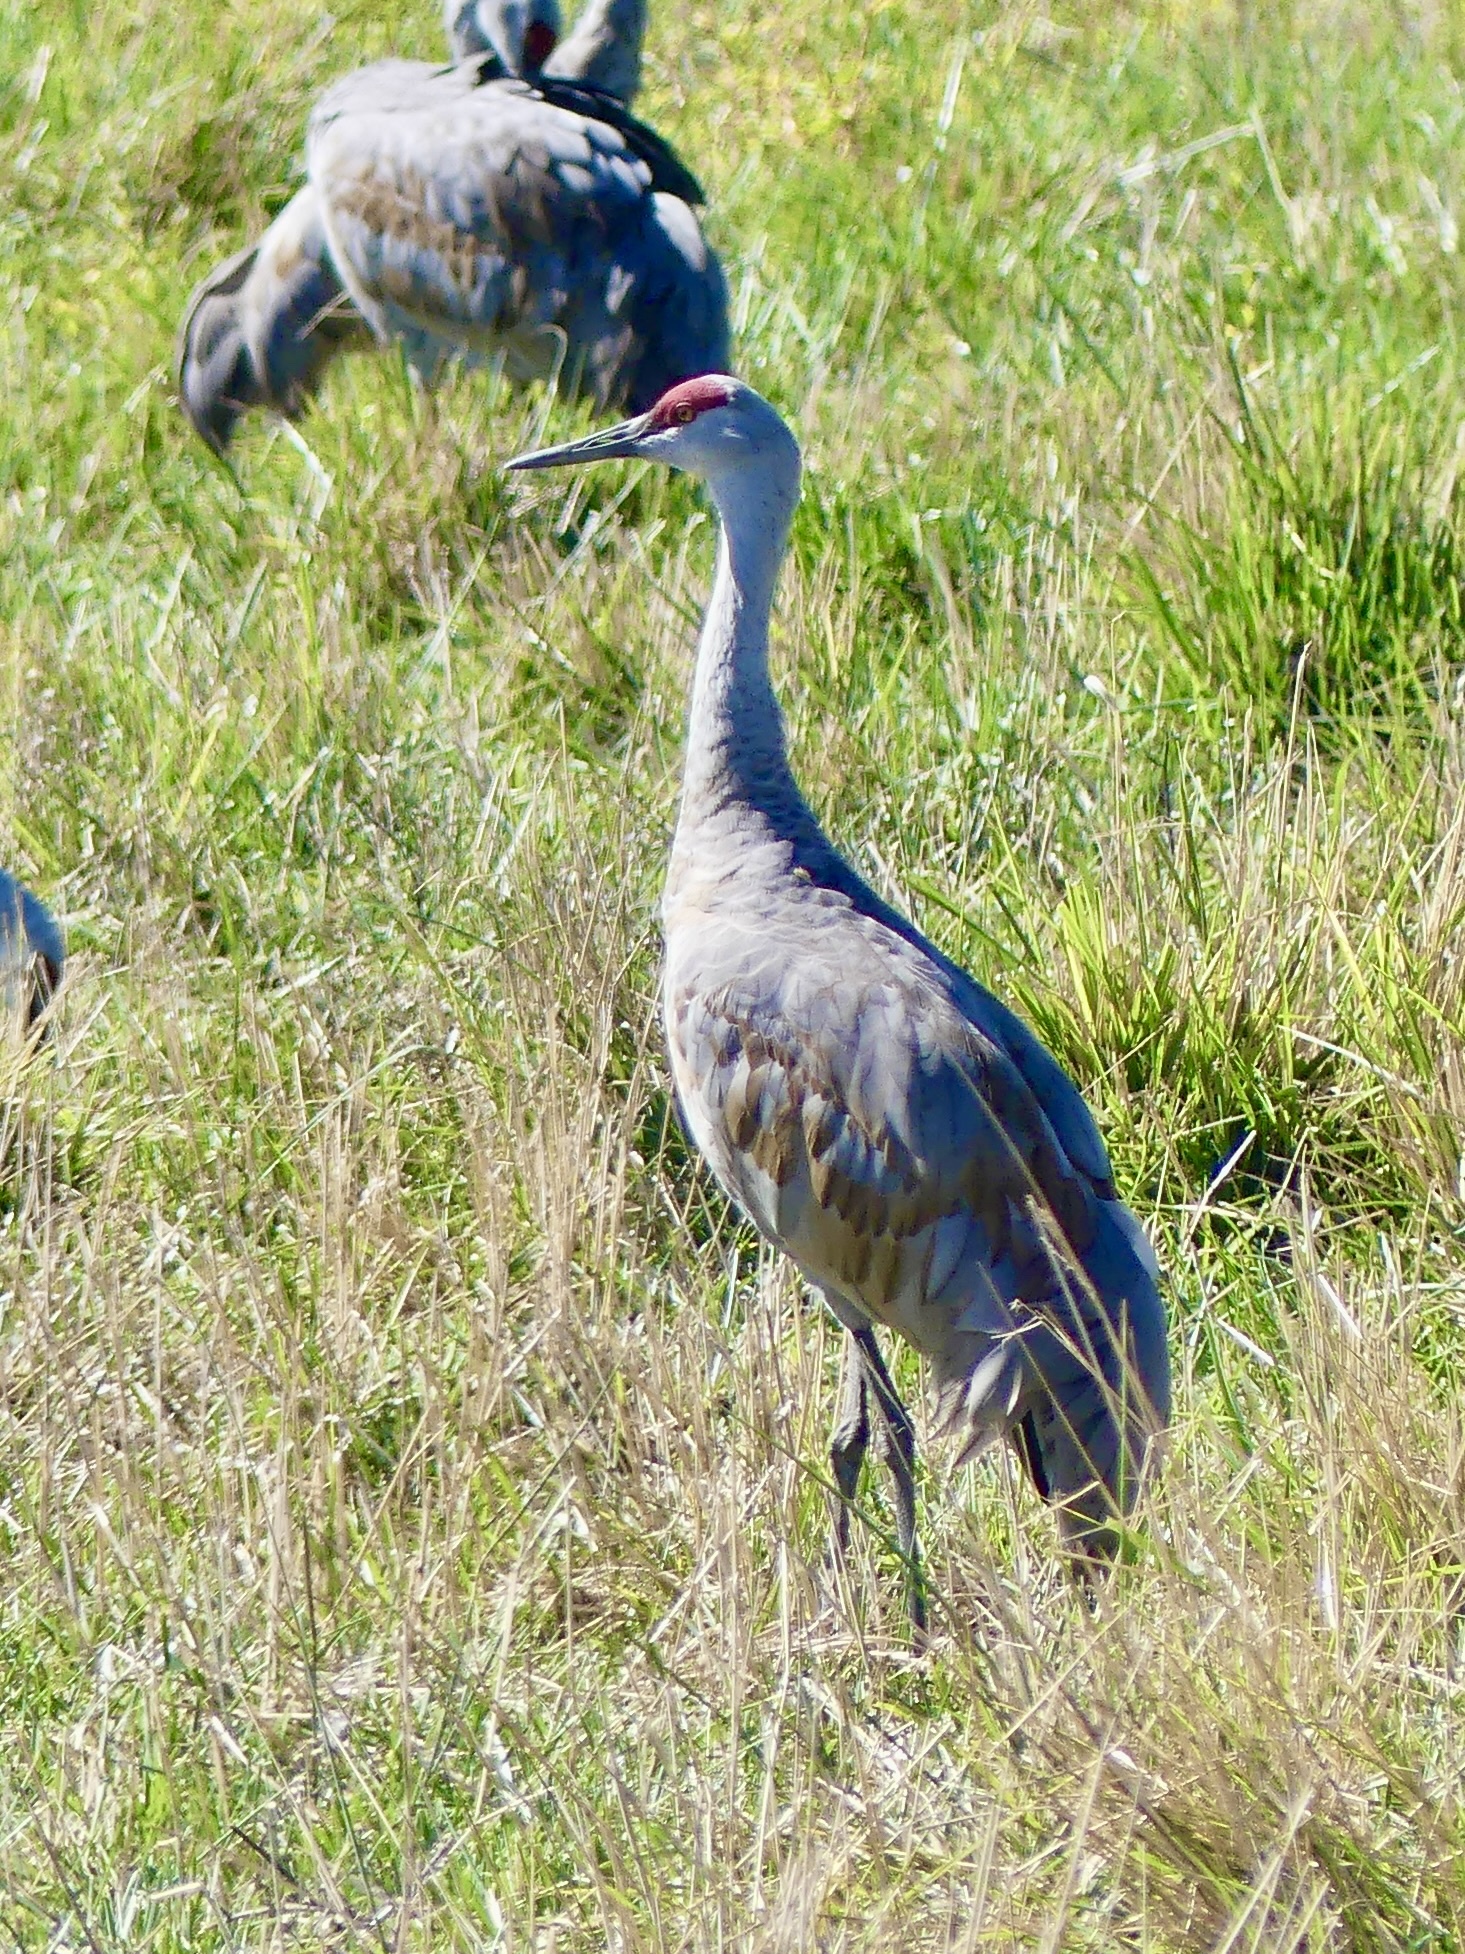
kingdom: Animalia
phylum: Chordata
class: Aves
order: Gruiformes
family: Gruidae
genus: Grus
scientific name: Grus canadensis
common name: Sandhill crane
